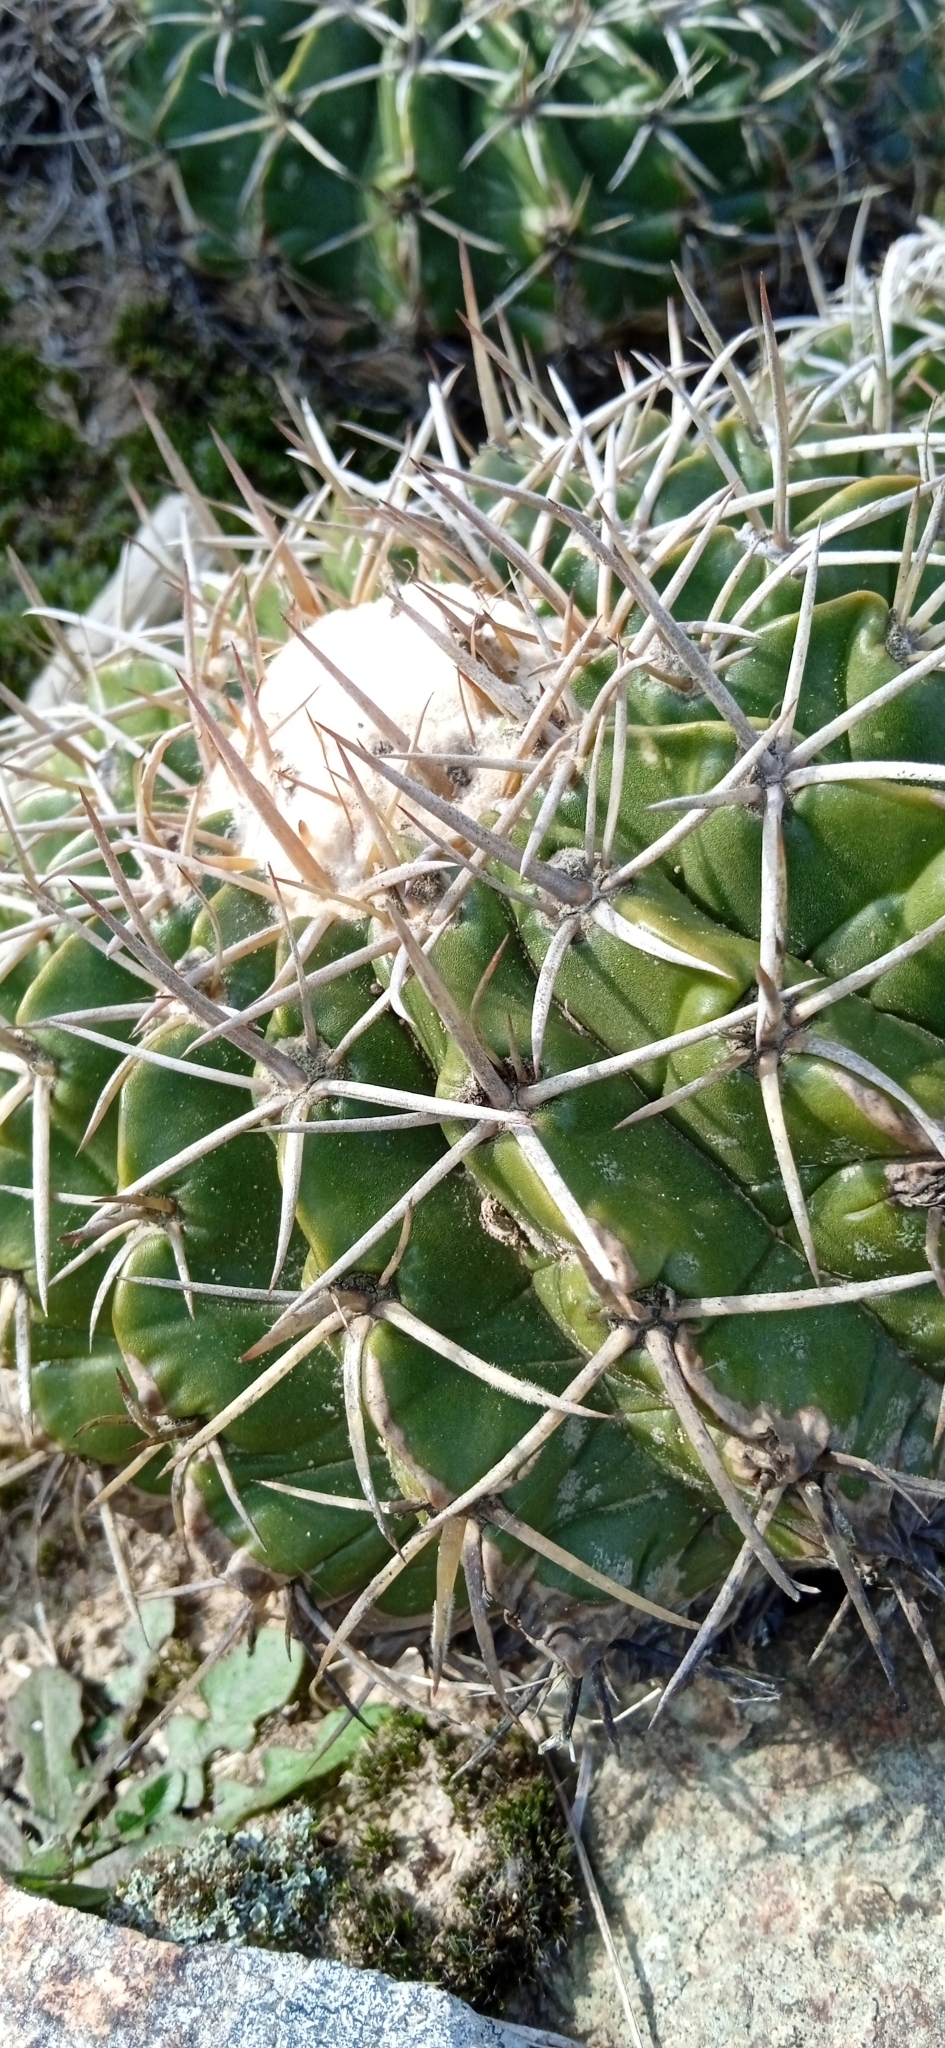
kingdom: Plantae
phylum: Tracheophyta
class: Magnoliopsida
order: Caryophyllales
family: Cactaceae
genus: Parodia
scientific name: Parodia erinacea
